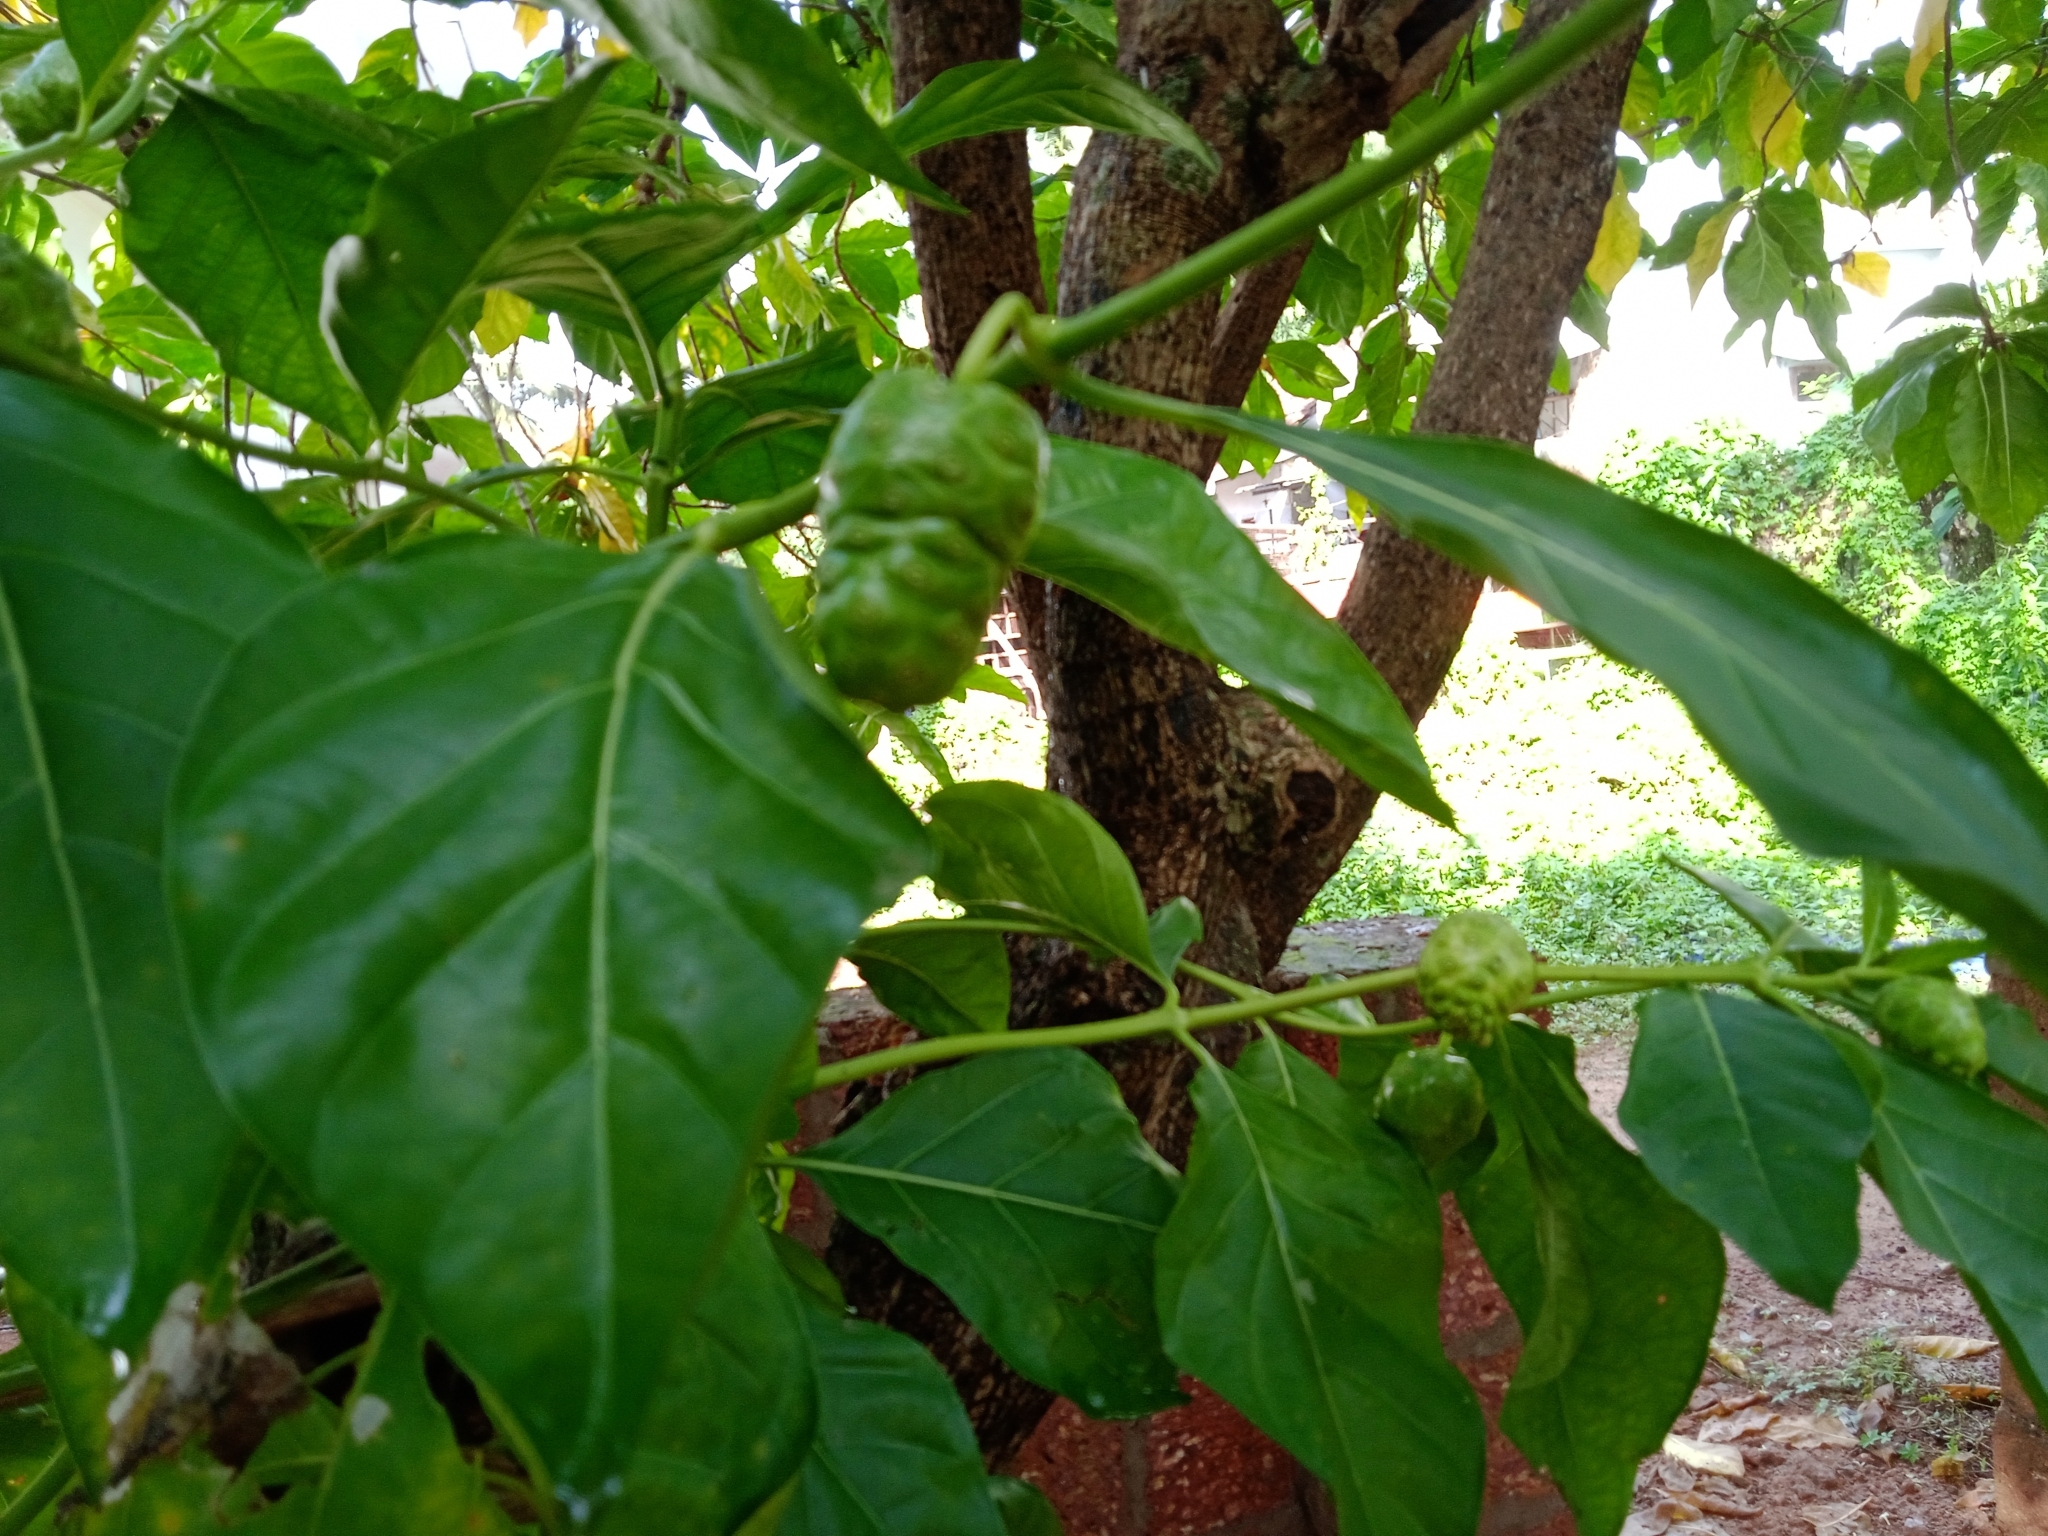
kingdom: Plantae
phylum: Tracheophyta
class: Magnoliopsida
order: Gentianales
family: Rubiaceae
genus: Morinda
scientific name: Morinda citrifolia
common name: Indian-mulberry
